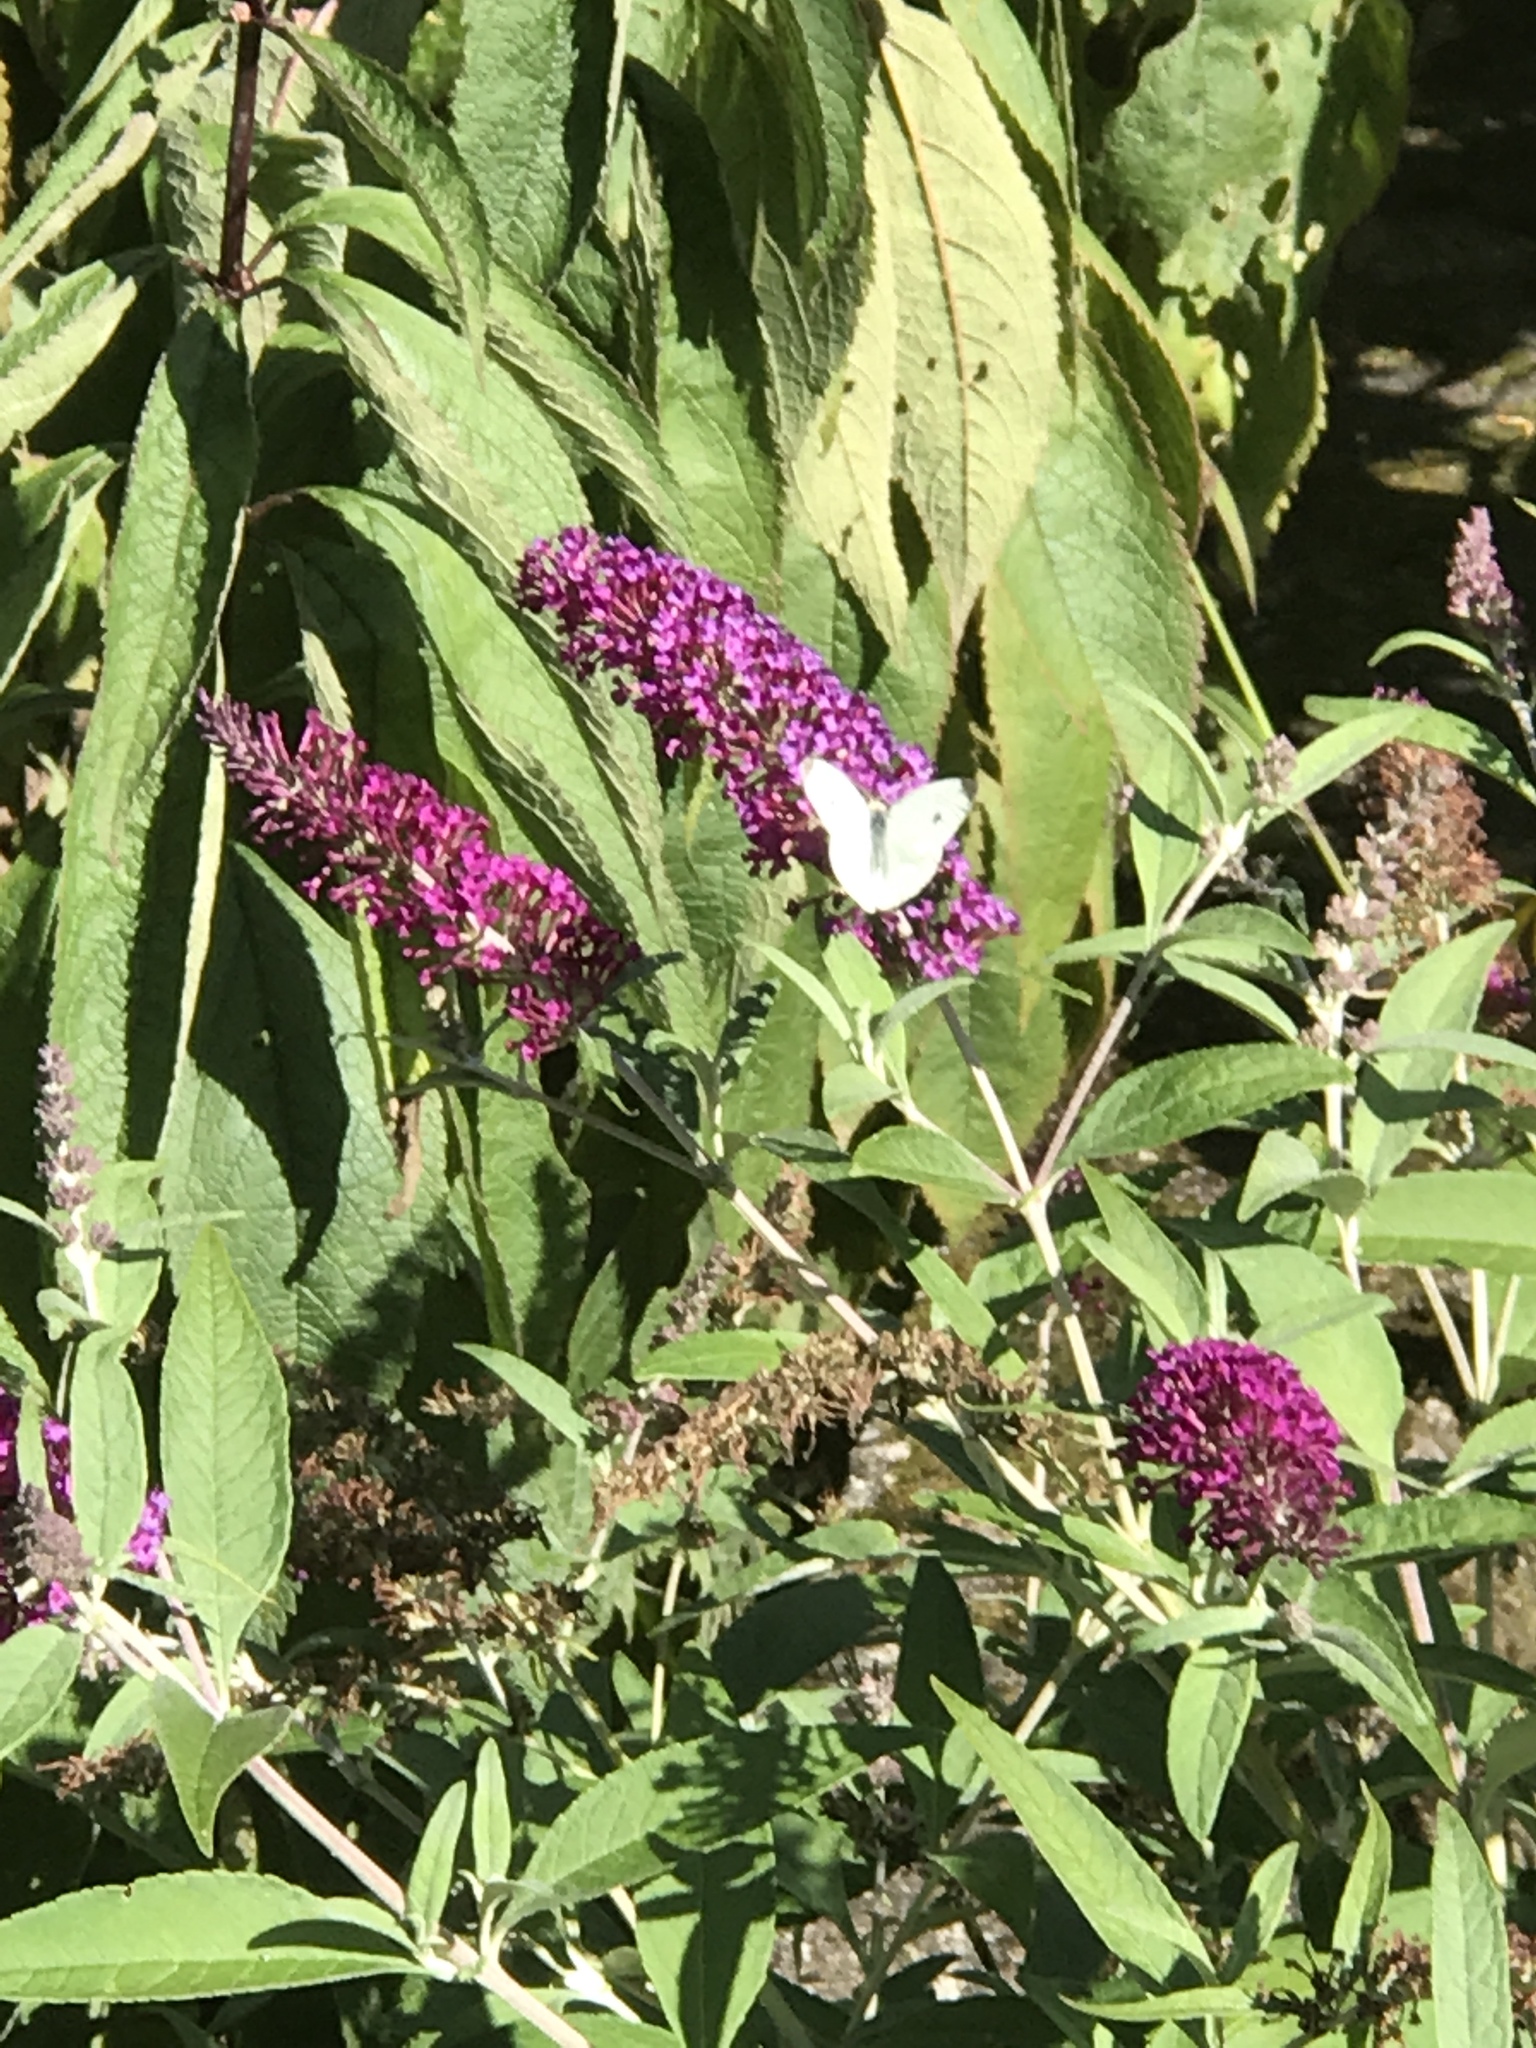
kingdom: Animalia
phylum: Arthropoda
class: Insecta
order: Lepidoptera
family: Pieridae
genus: Pieris
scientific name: Pieris rapae
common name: Small white
